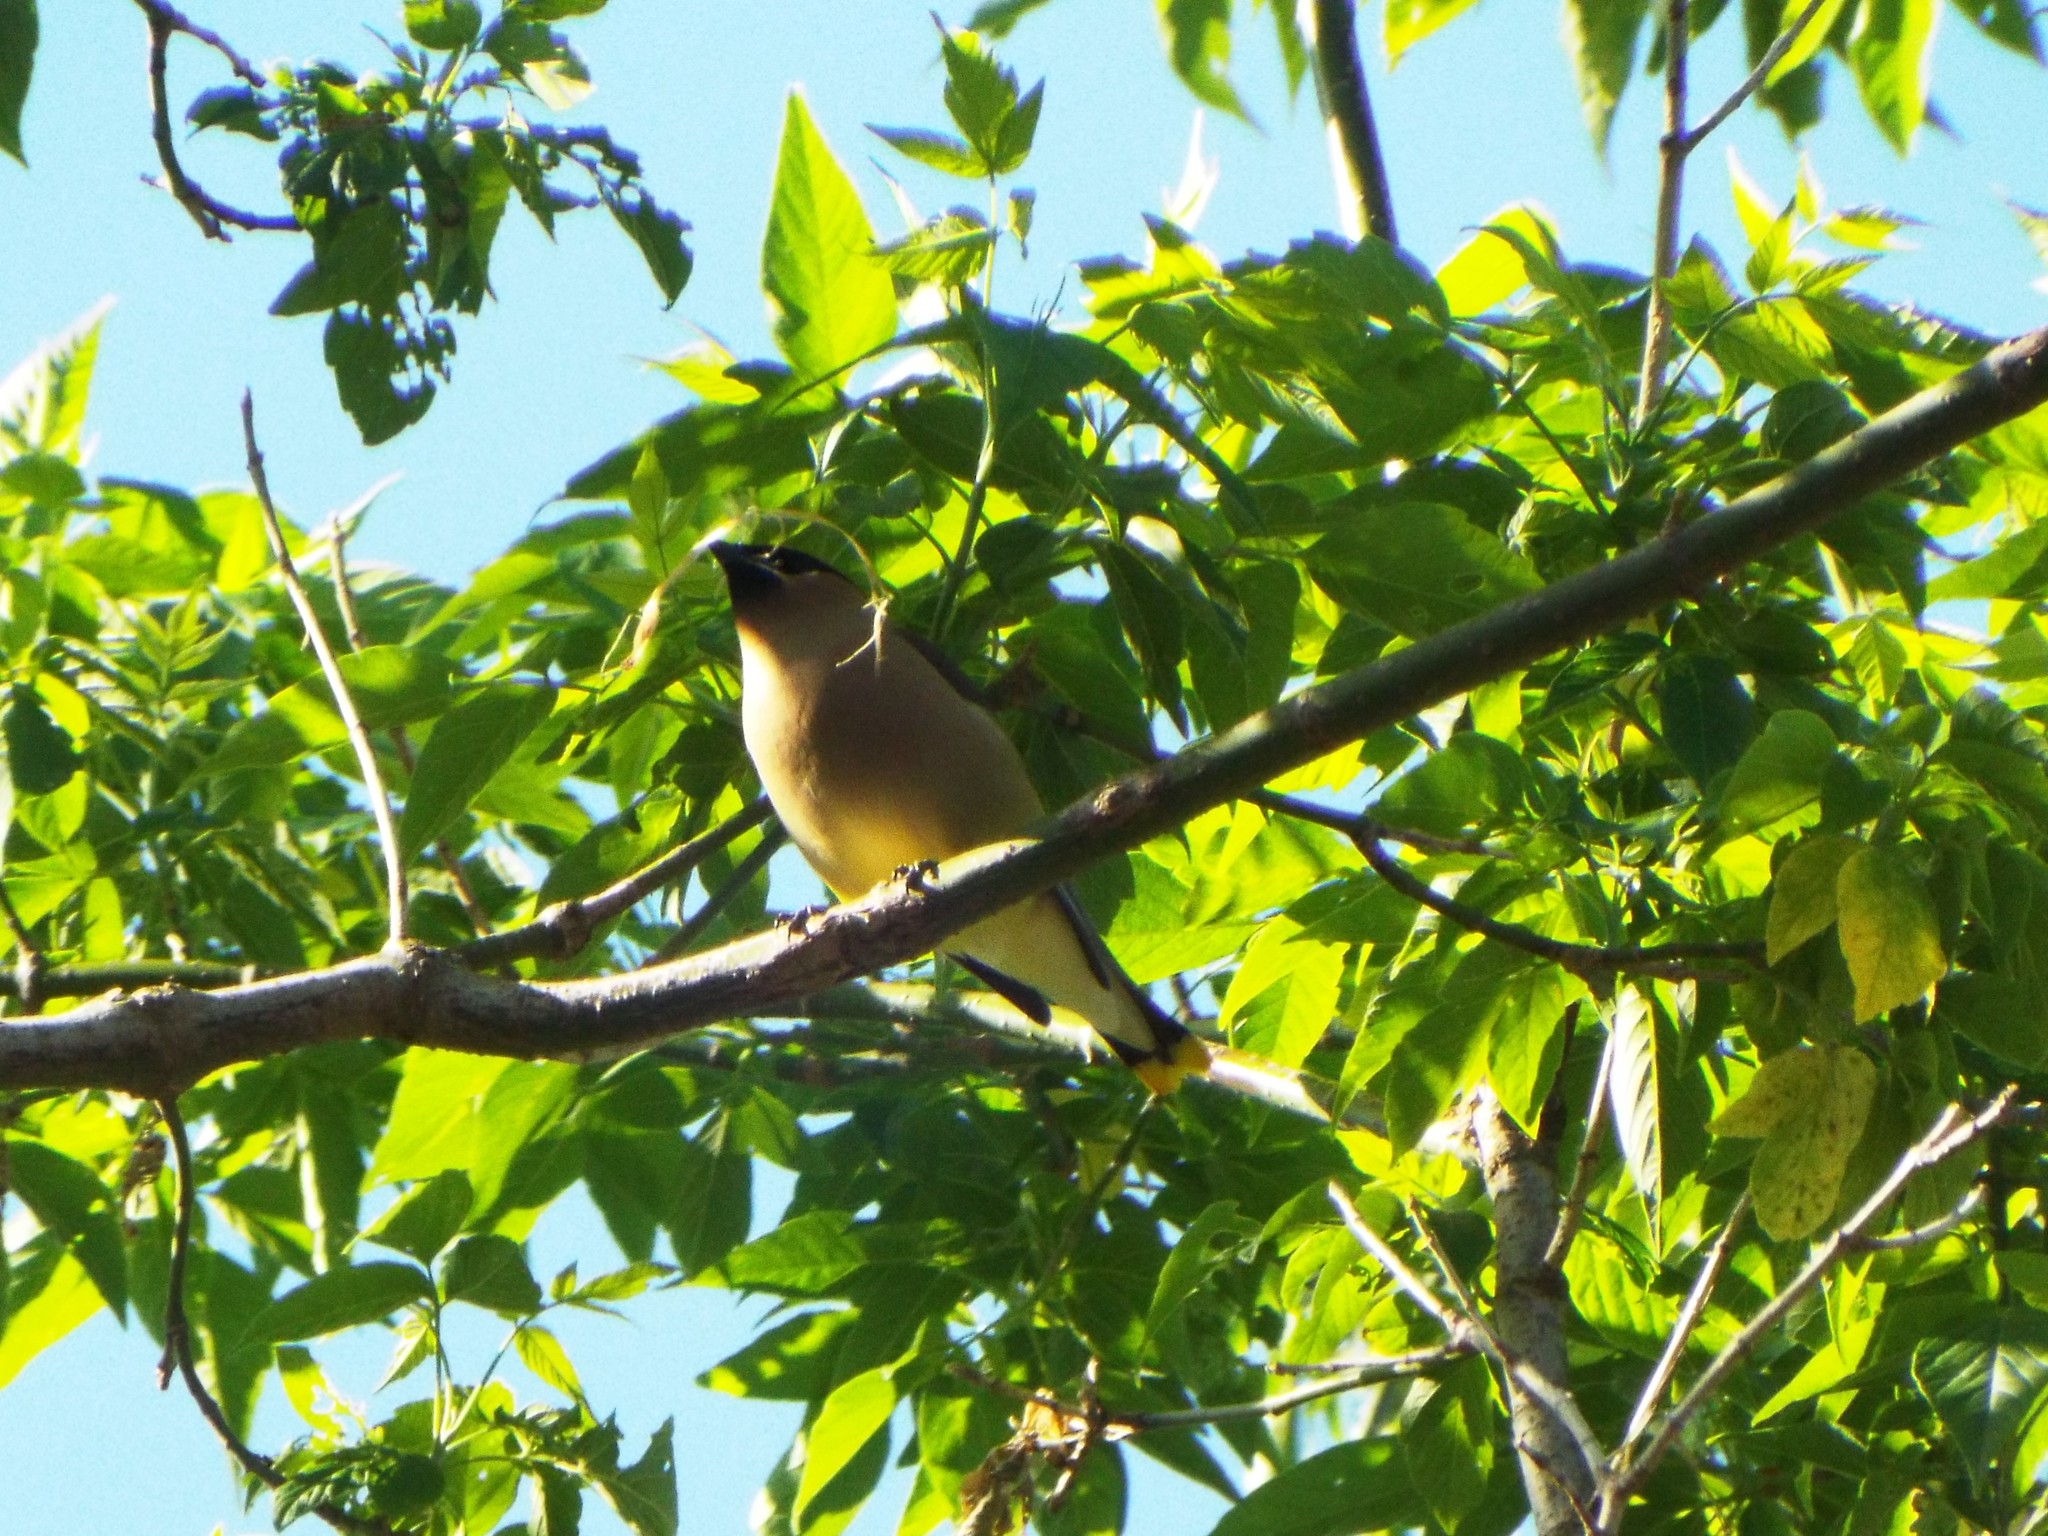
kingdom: Animalia
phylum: Chordata
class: Aves
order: Passeriformes
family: Bombycillidae
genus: Bombycilla
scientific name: Bombycilla cedrorum
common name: Cedar waxwing
